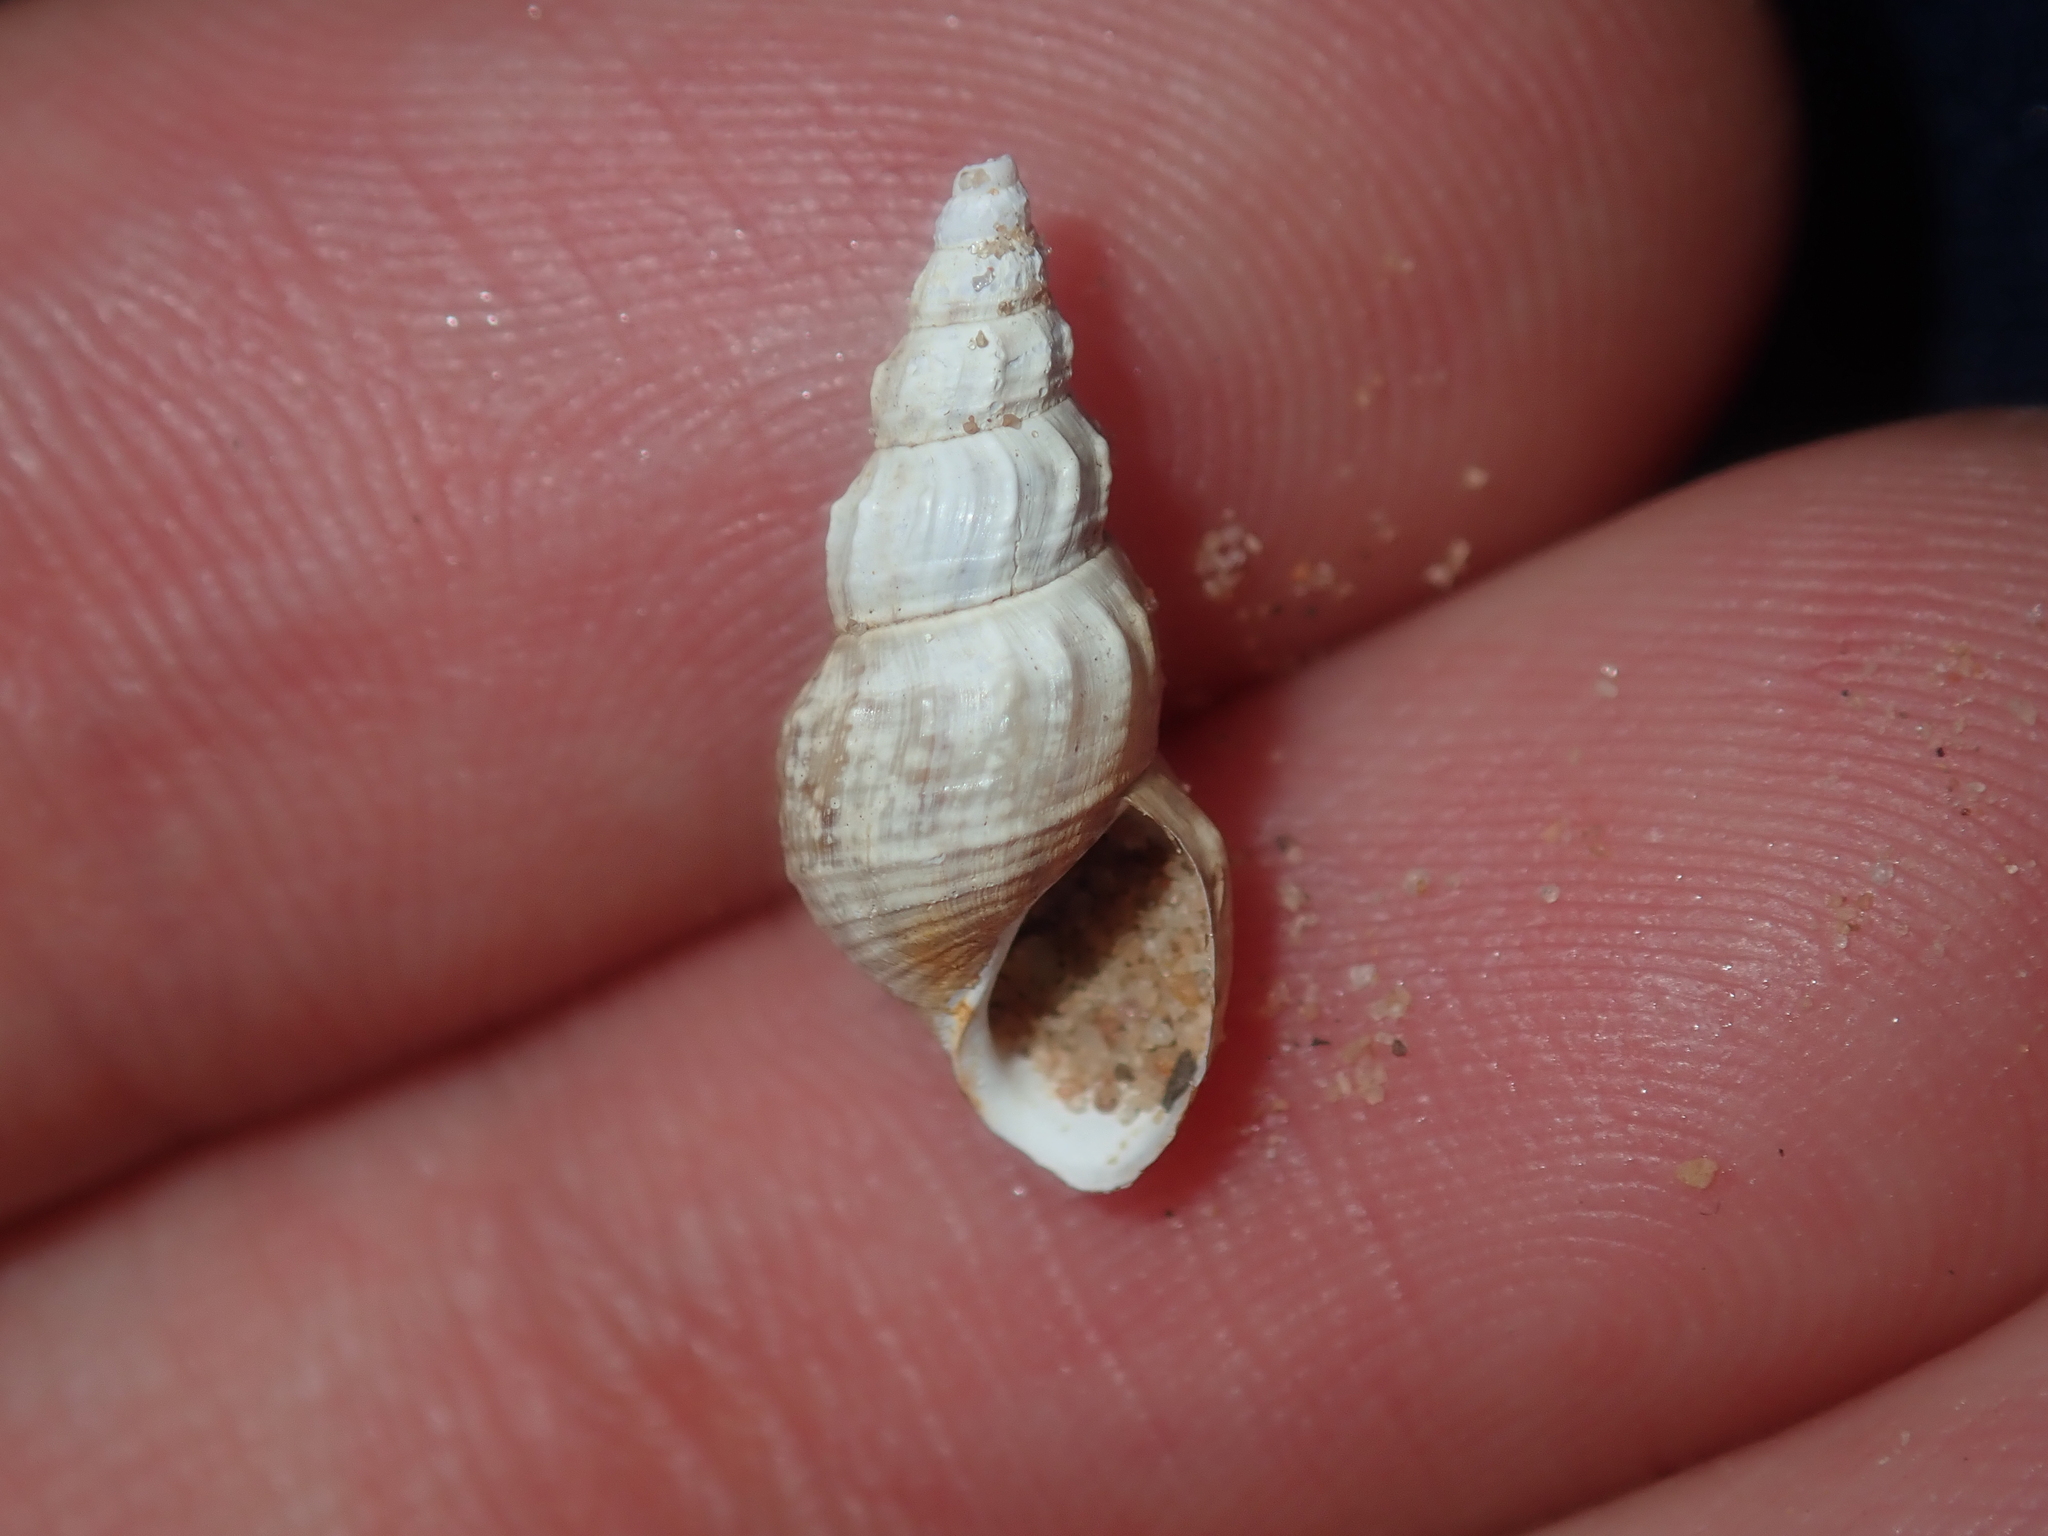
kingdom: Animalia
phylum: Mollusca
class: Gastropoda
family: Thiaridae
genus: Plotiopsis
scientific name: Plotiopsis balonnensis
